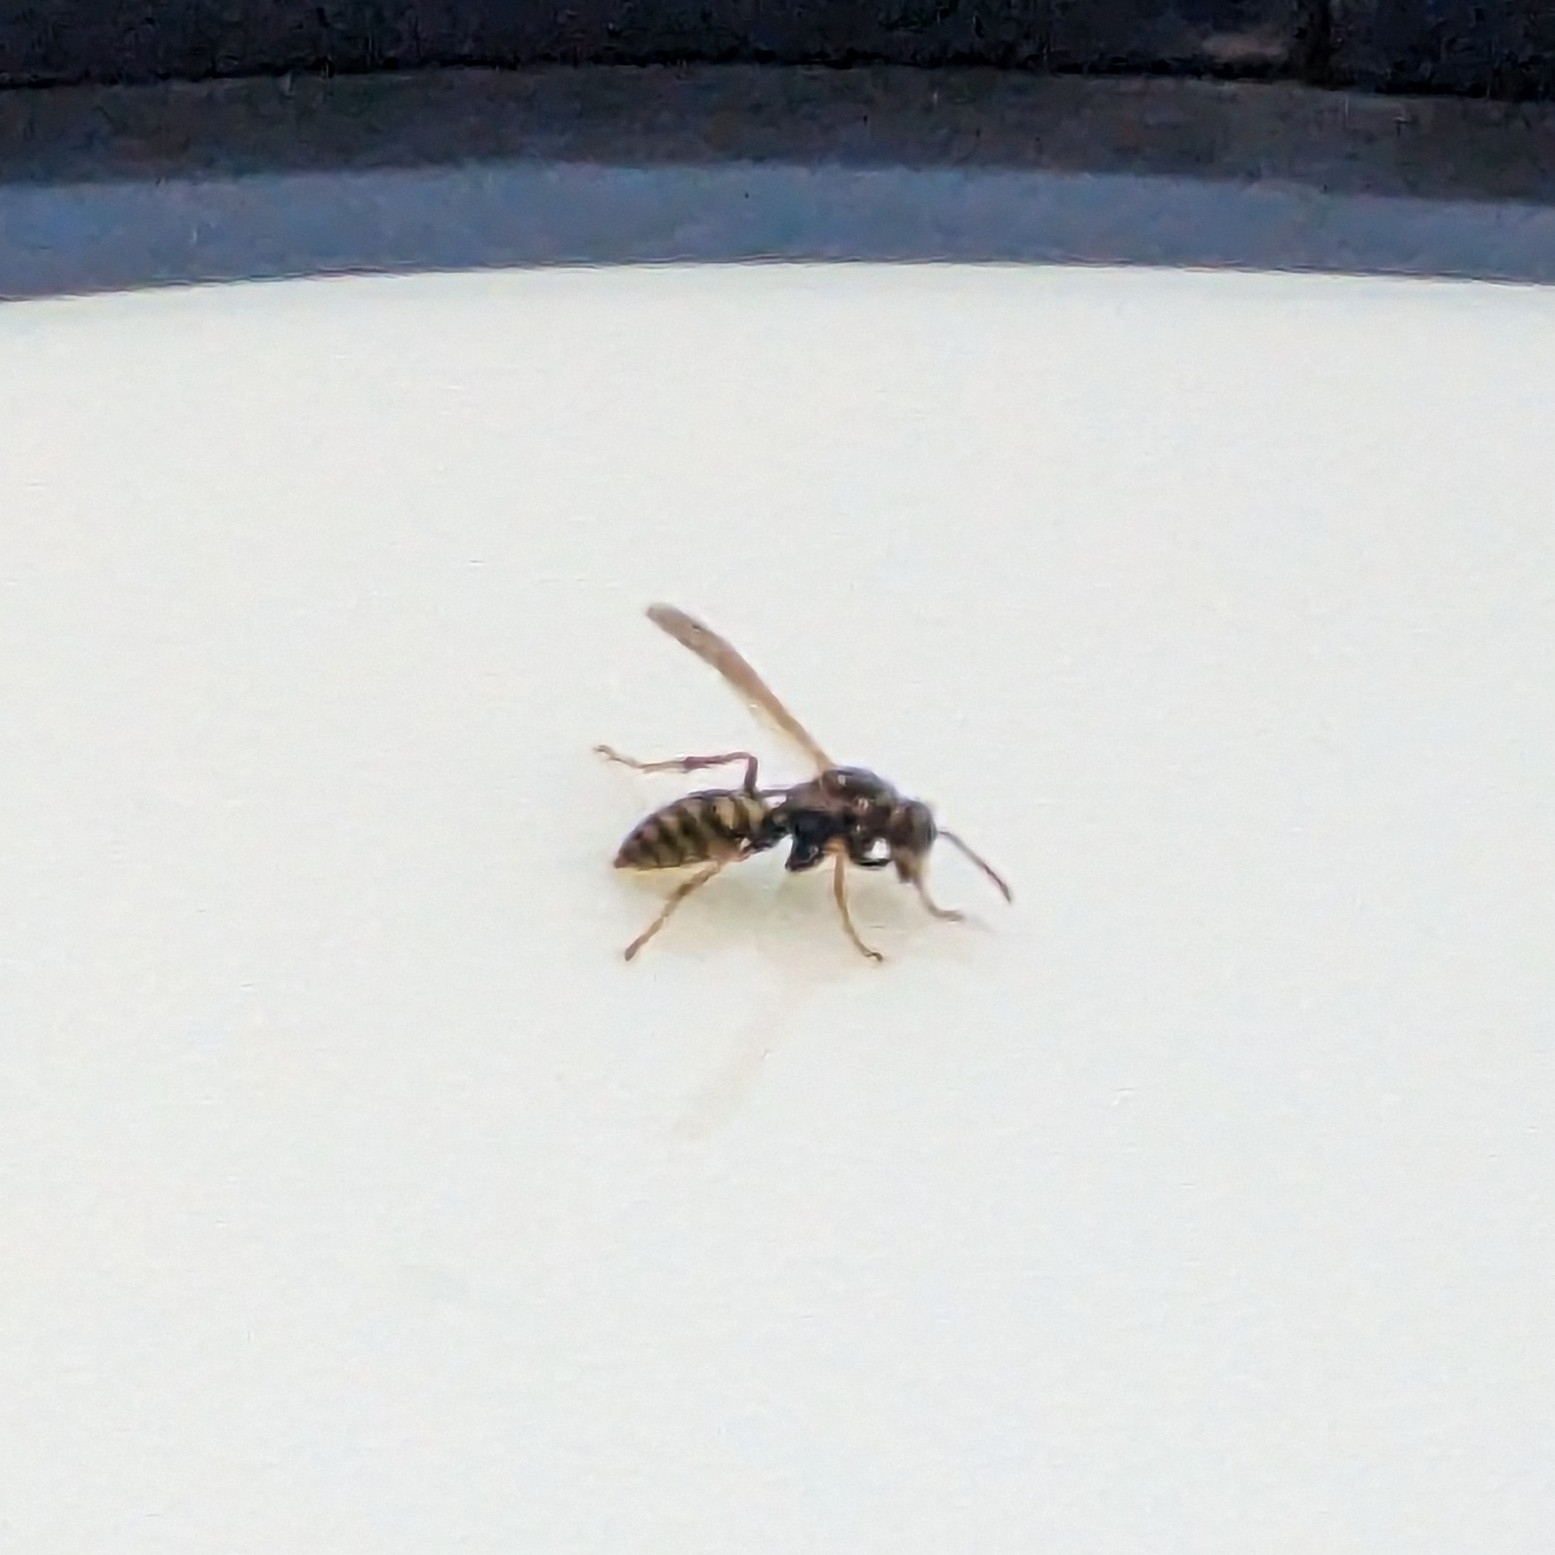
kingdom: Animalia
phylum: Arthropoda
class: Insecta
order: Hymenoptera
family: Eumenidae
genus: Polistes
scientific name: Polistes dominula
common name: Paper wasp
